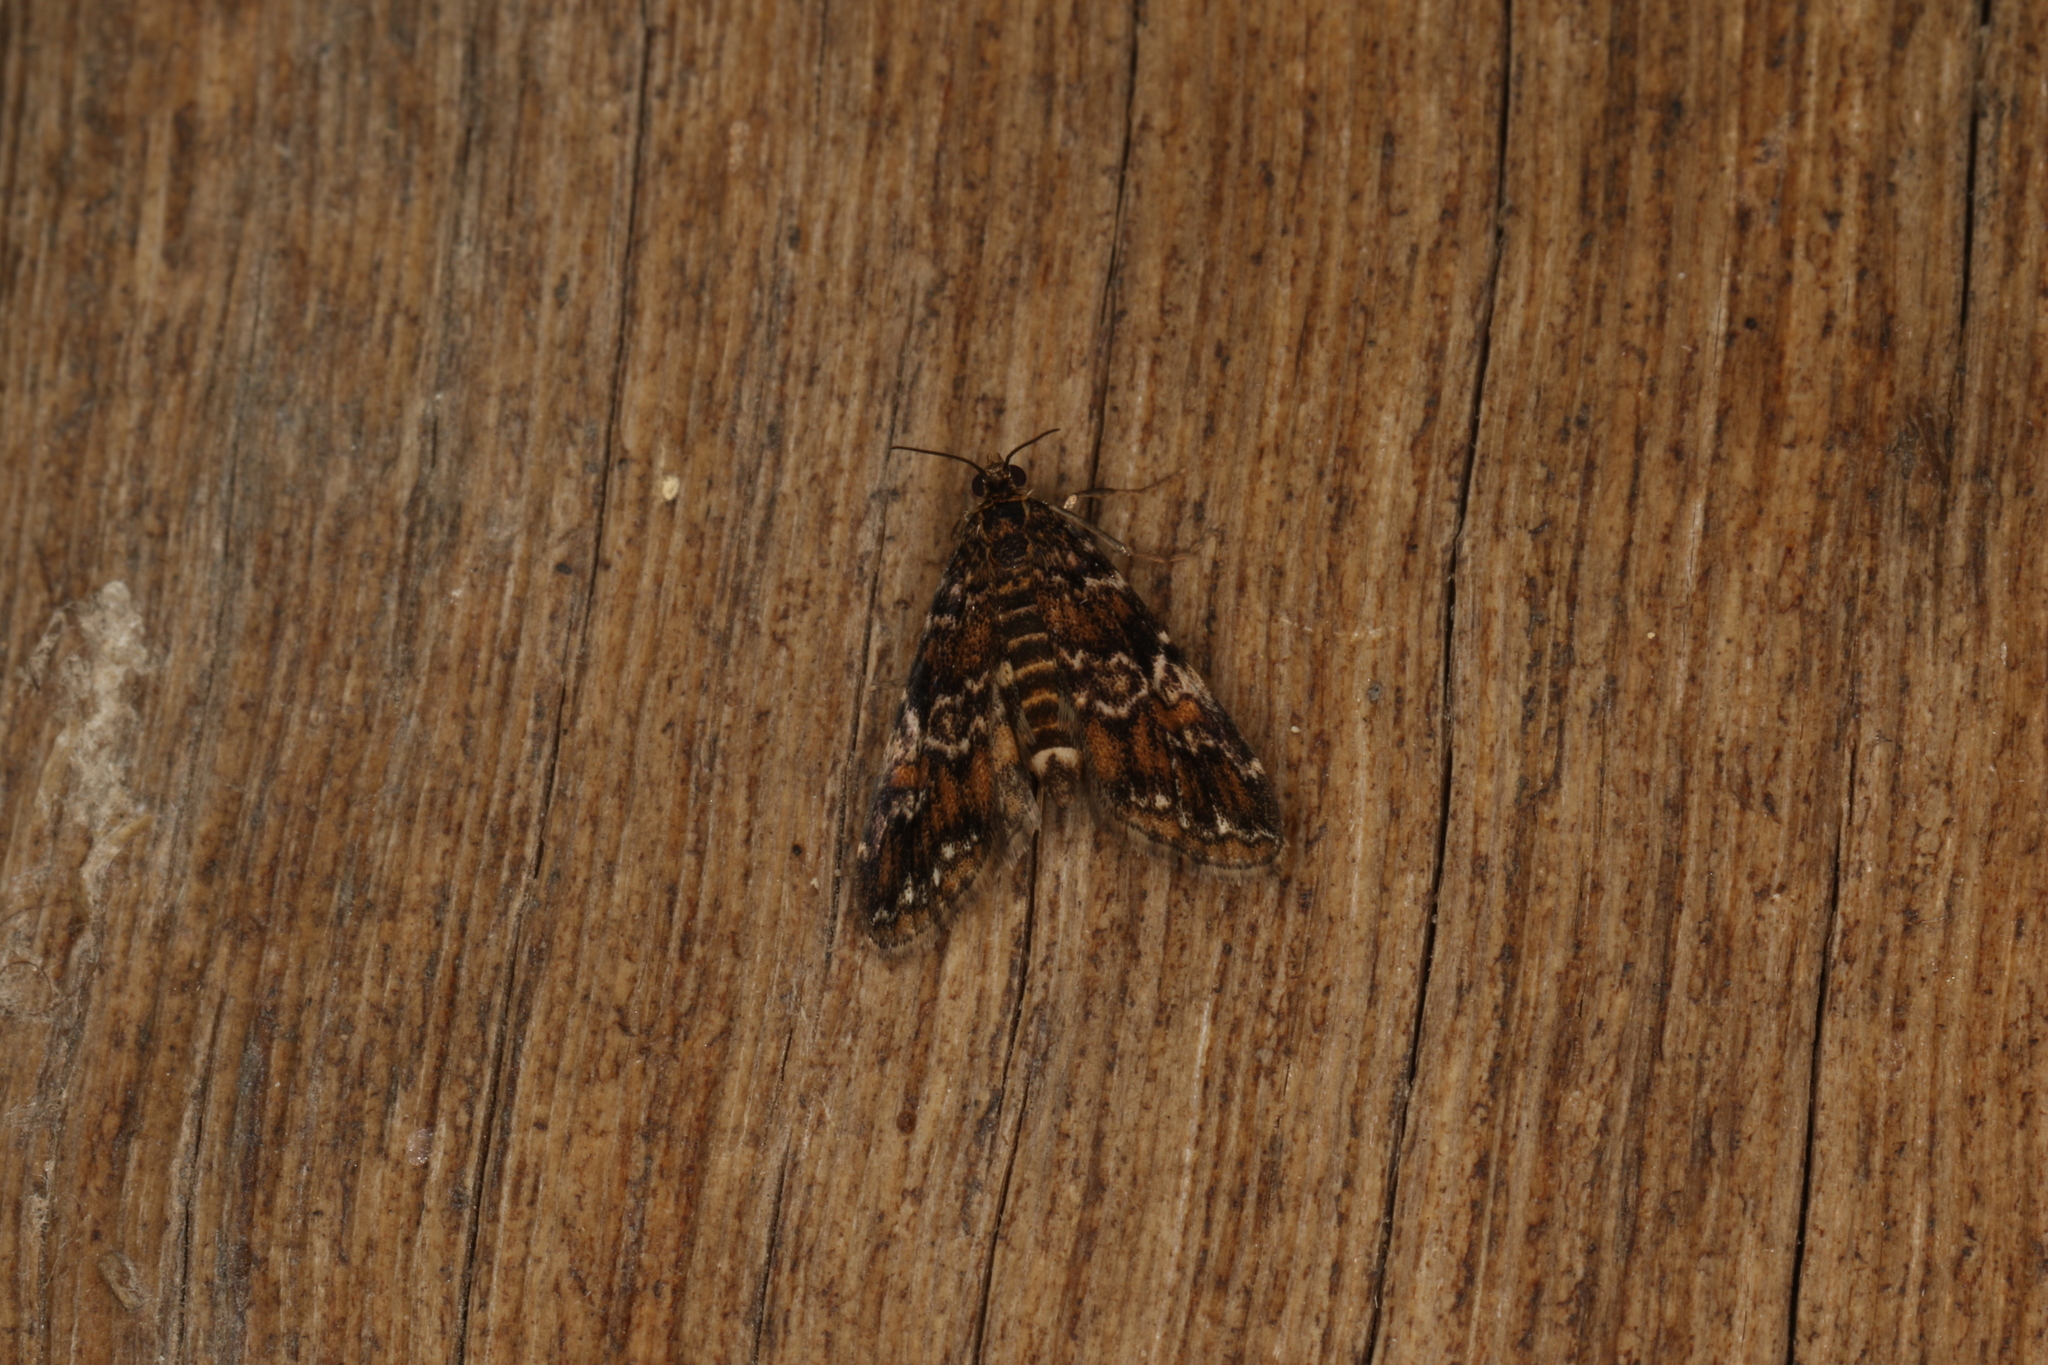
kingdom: Animalia
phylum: Arthropoda
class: Insecta
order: Lepidoptera
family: Crambidae
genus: Elophila
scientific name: Elophila responsalis
